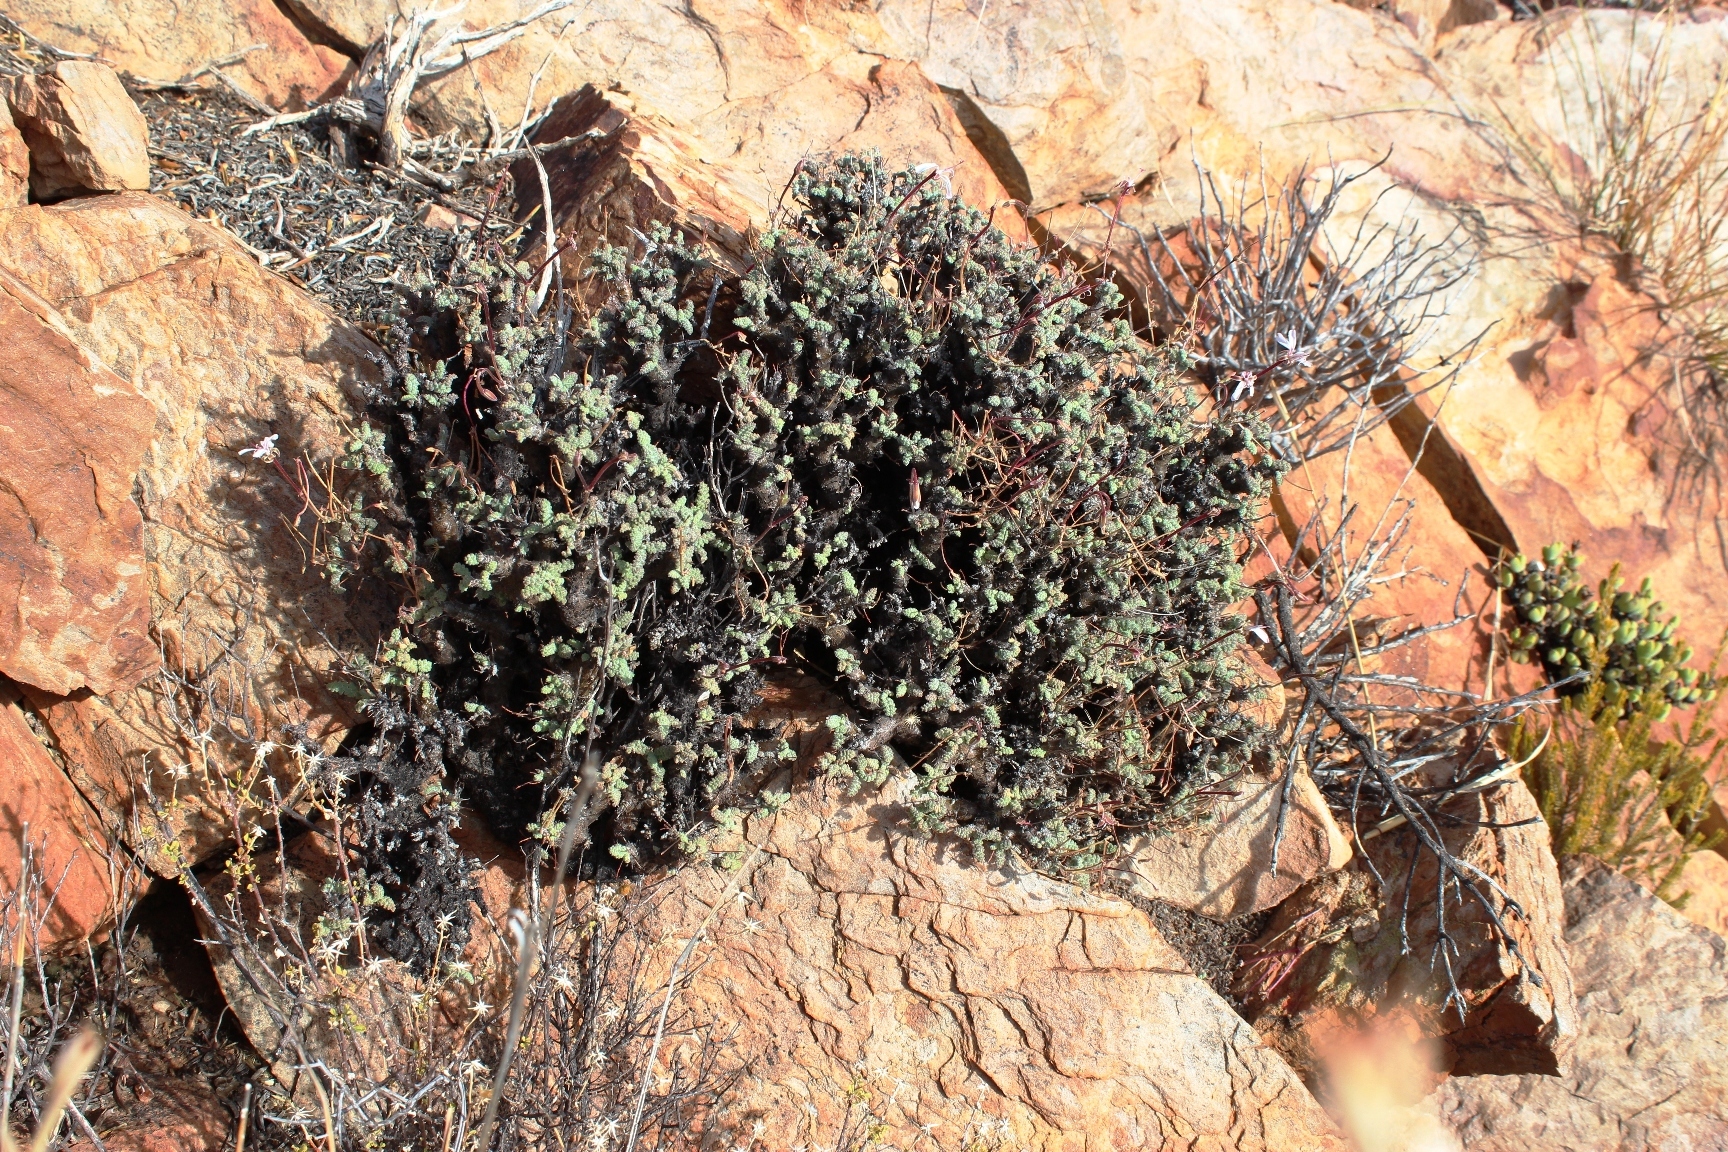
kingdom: Plantae
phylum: Tracheophyta
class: Magnoliopsida
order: Geraniales
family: Geraniaceae
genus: Pelargonium
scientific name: Pelargonium alternans
